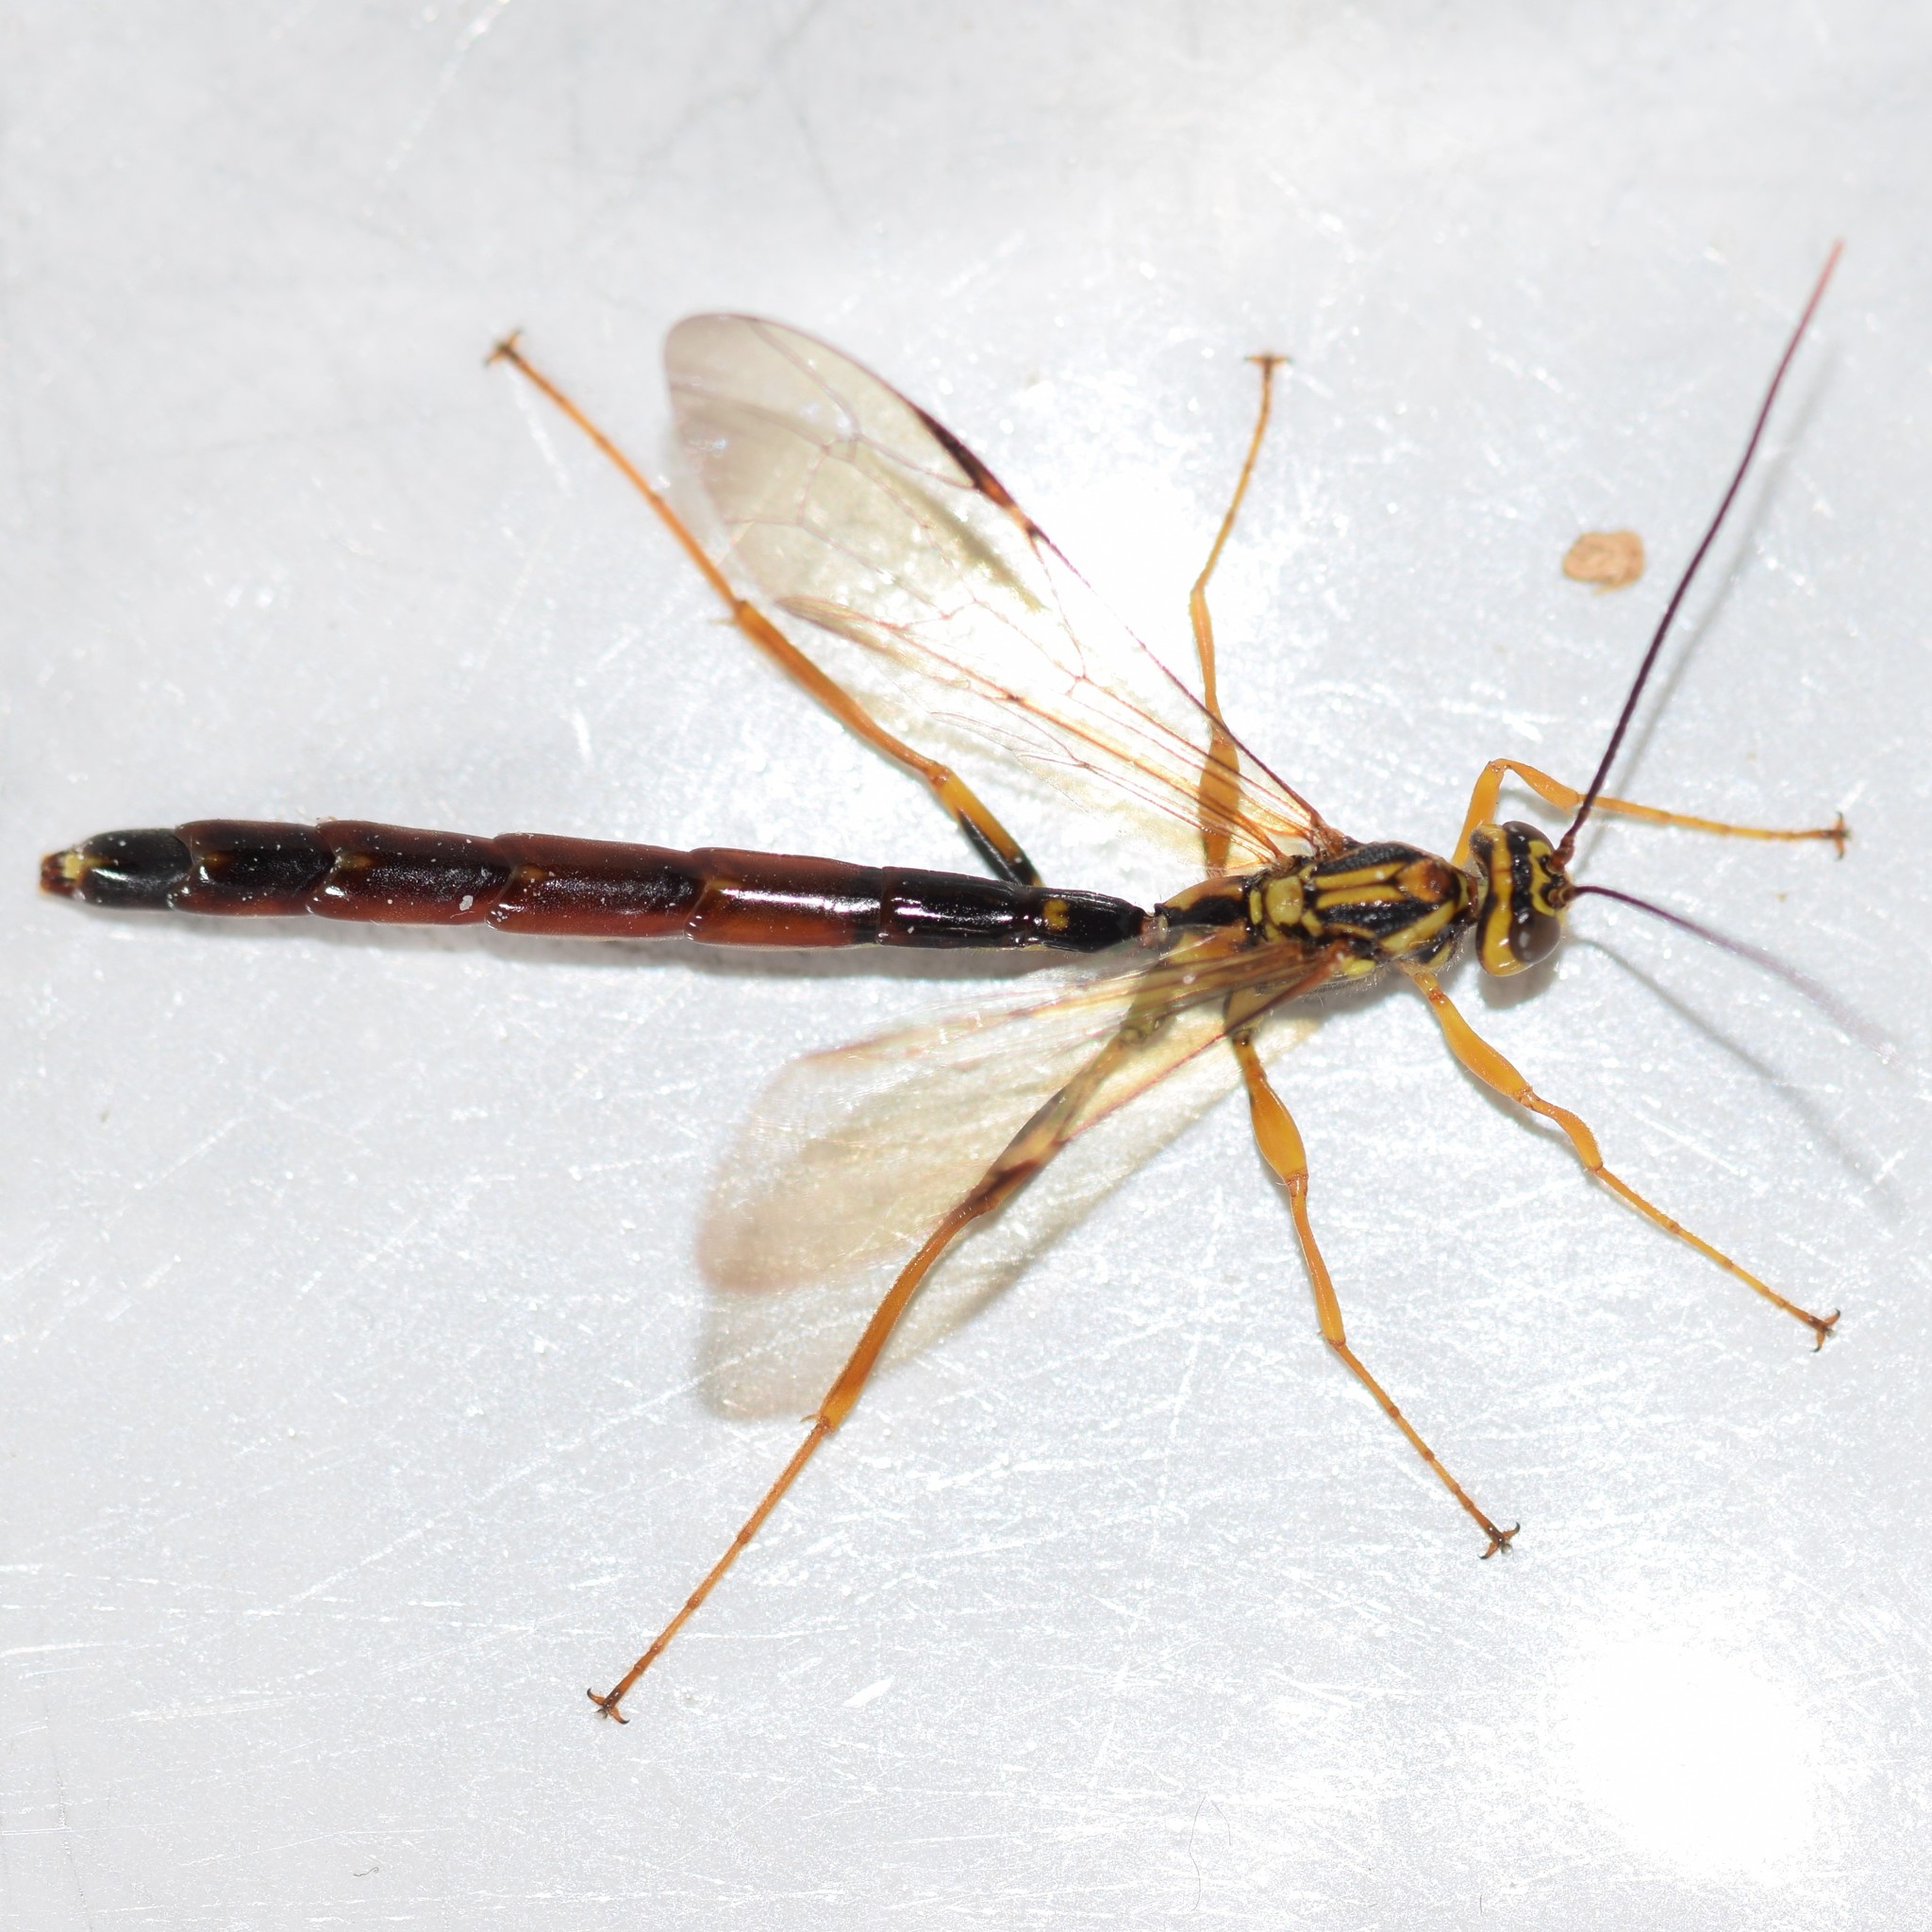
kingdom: Animalia
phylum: Arthropoda
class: Insecta
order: Hymenoptera
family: Ichneumonidae
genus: Megarhyssa
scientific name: Megarhyssa atrata
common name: Black giant ichneumonid wasp
